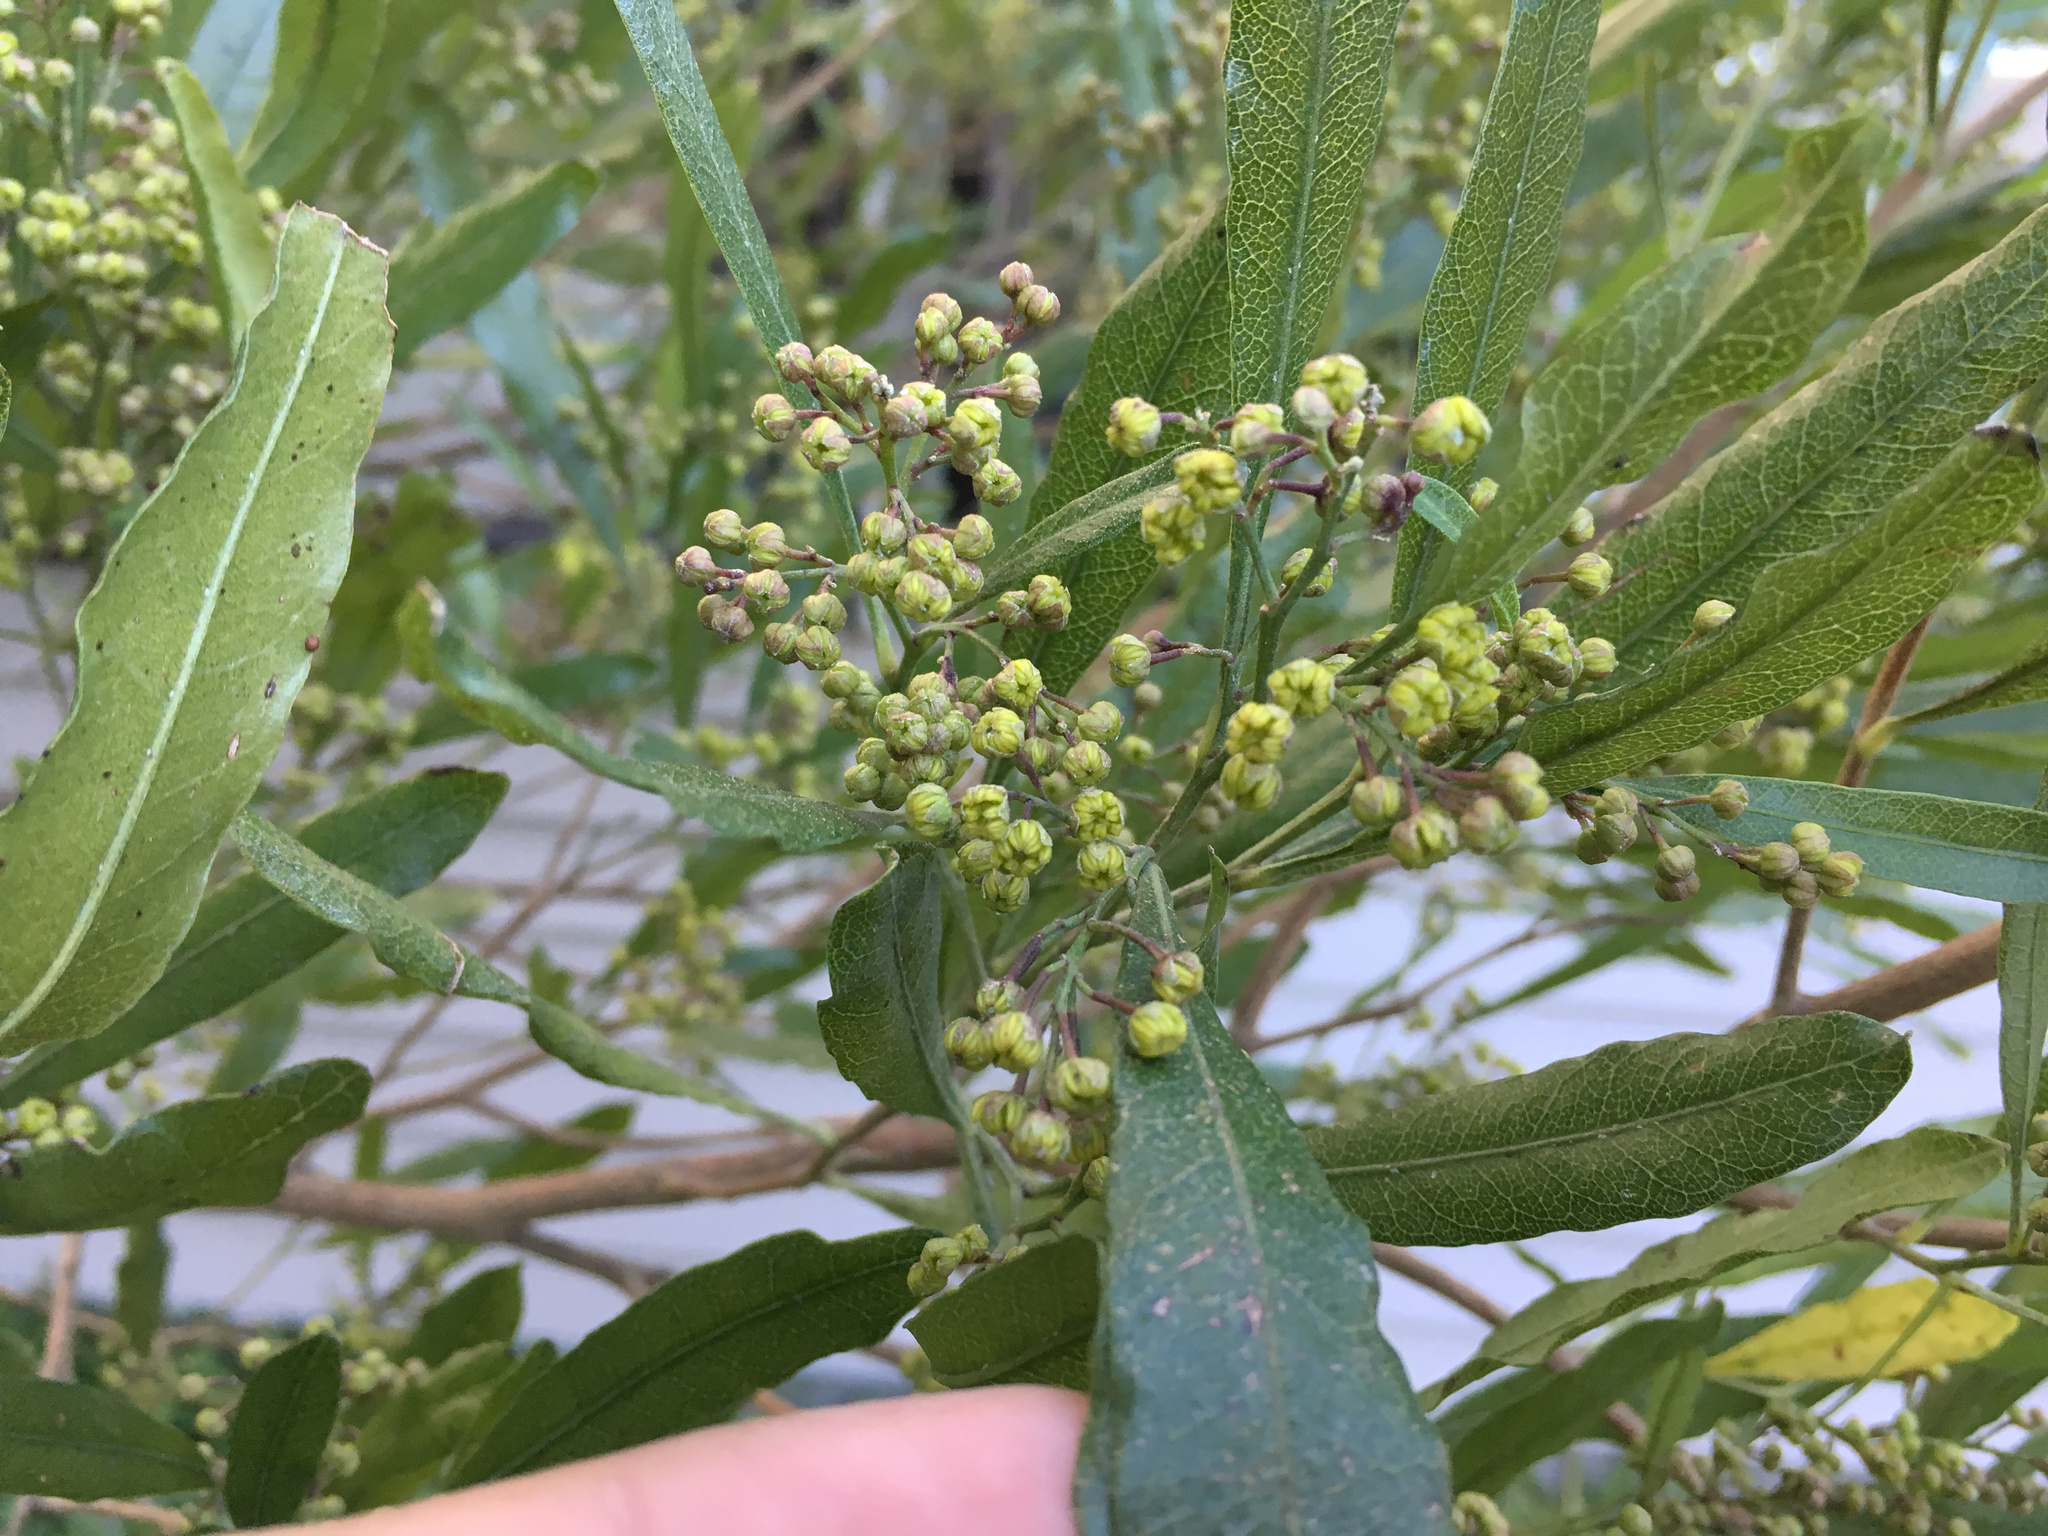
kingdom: Plantae
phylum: Tracheophyta
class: Magnoliopsida
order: Sapindales
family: Sapindaceae
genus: Dodonaea
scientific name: Dodonaea viscosa
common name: Hopbush
